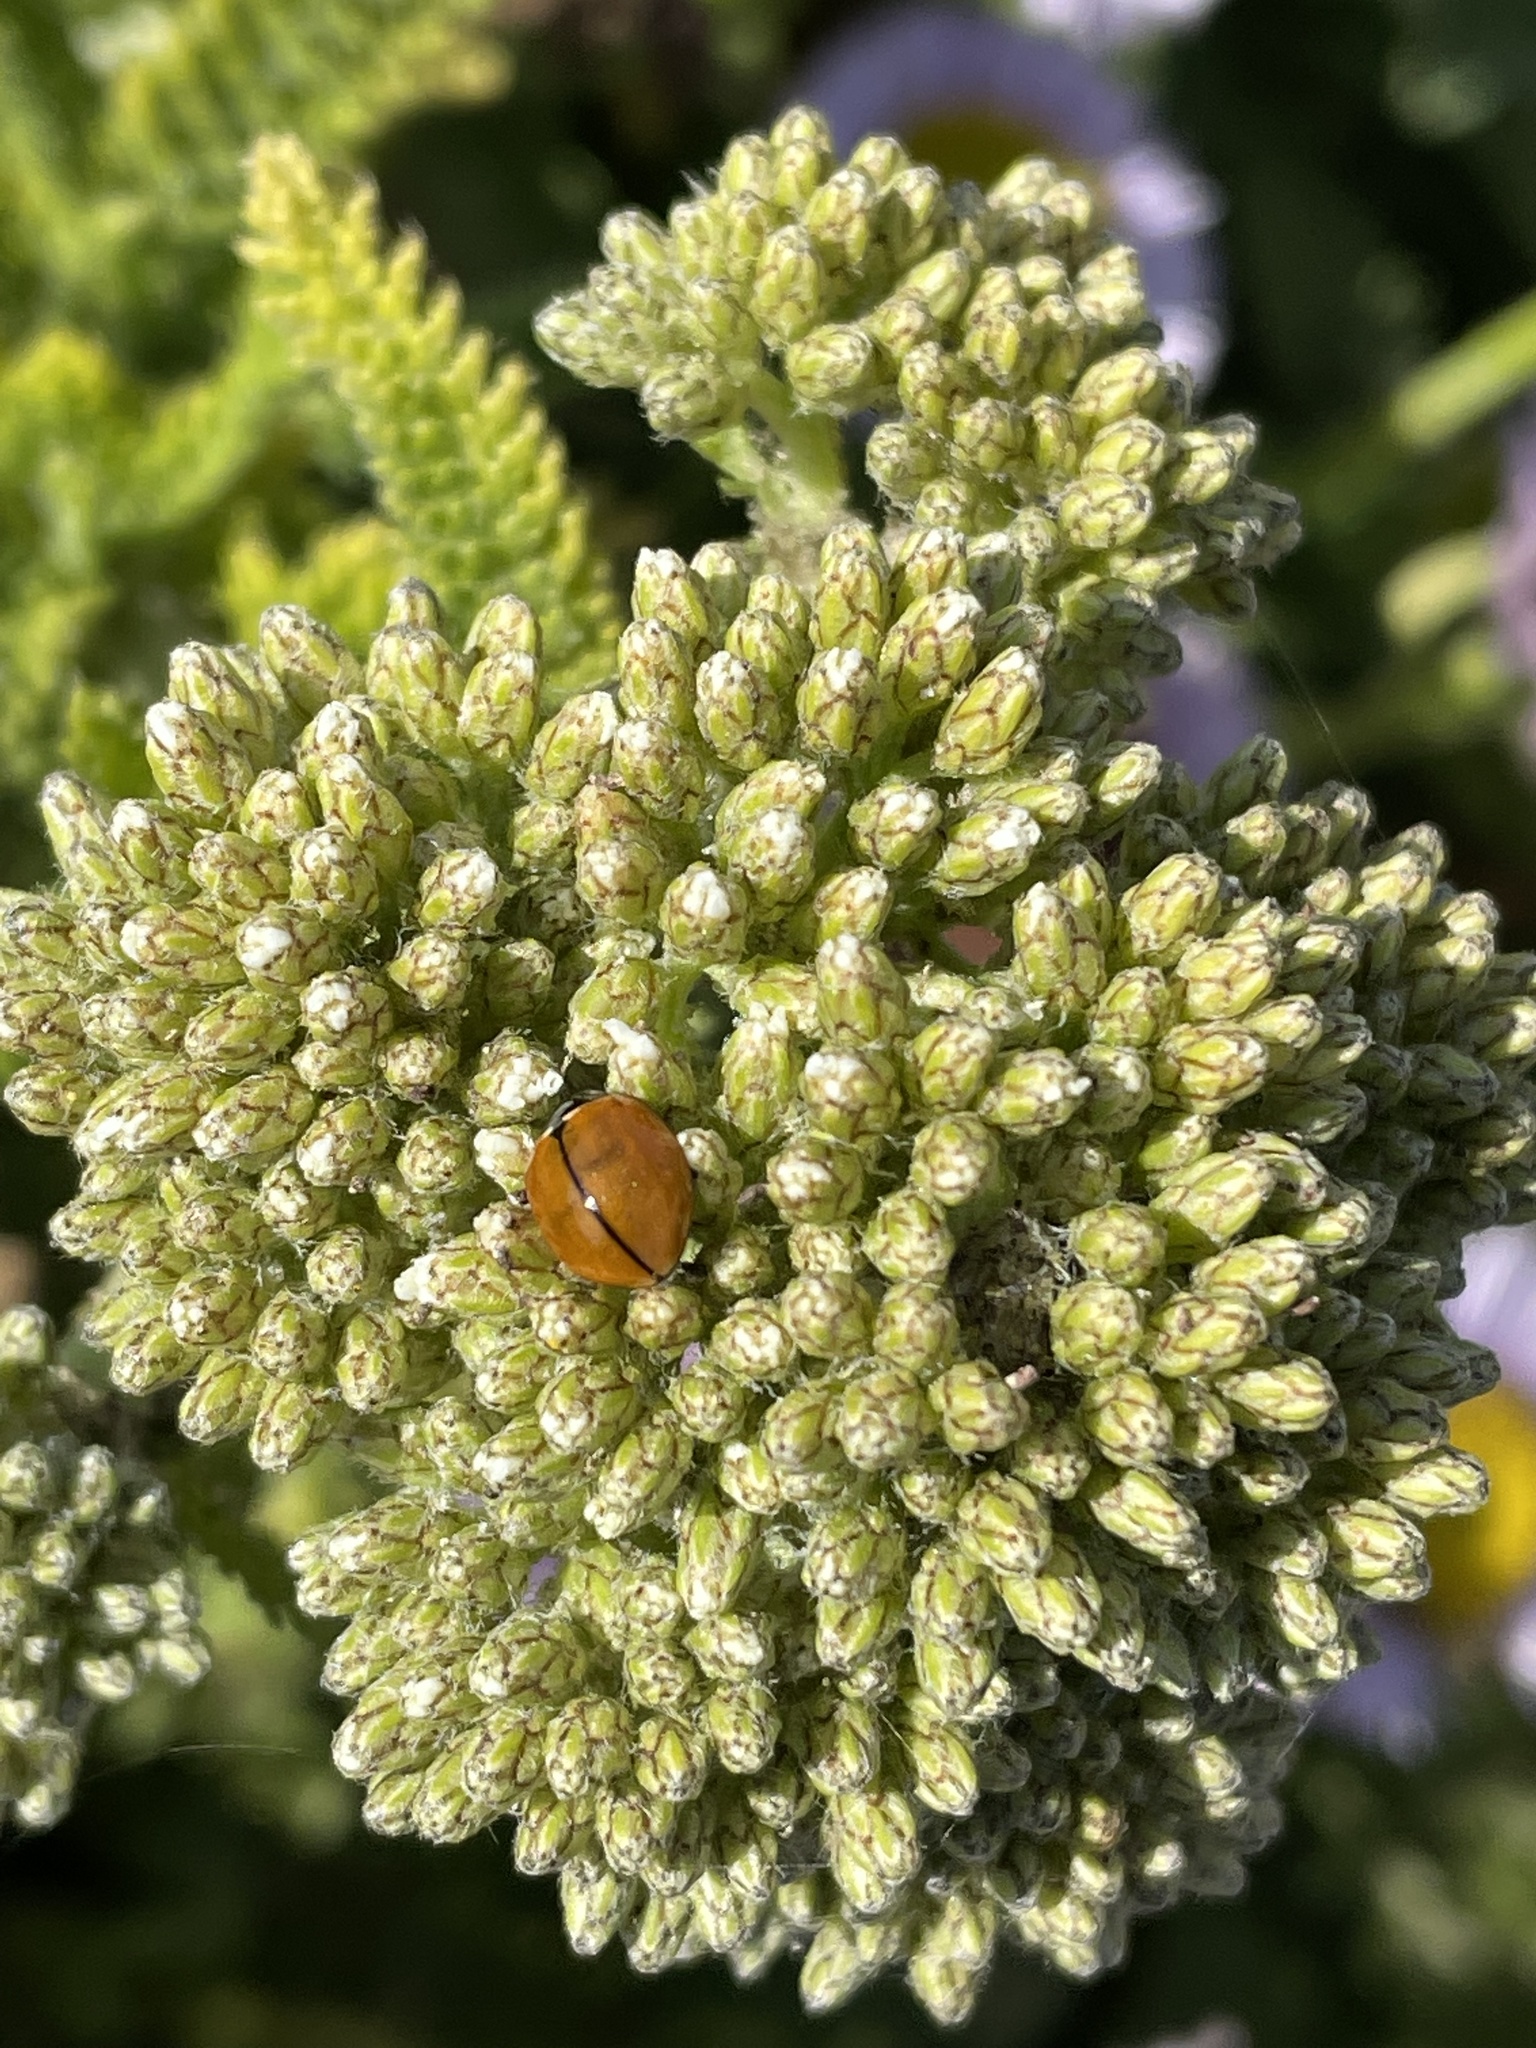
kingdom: Animalia
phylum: Arthropoda
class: Insecta
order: Coleoptera
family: Coccinellidae
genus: Coccinella
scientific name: Coccinella californica
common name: Lady beetle
